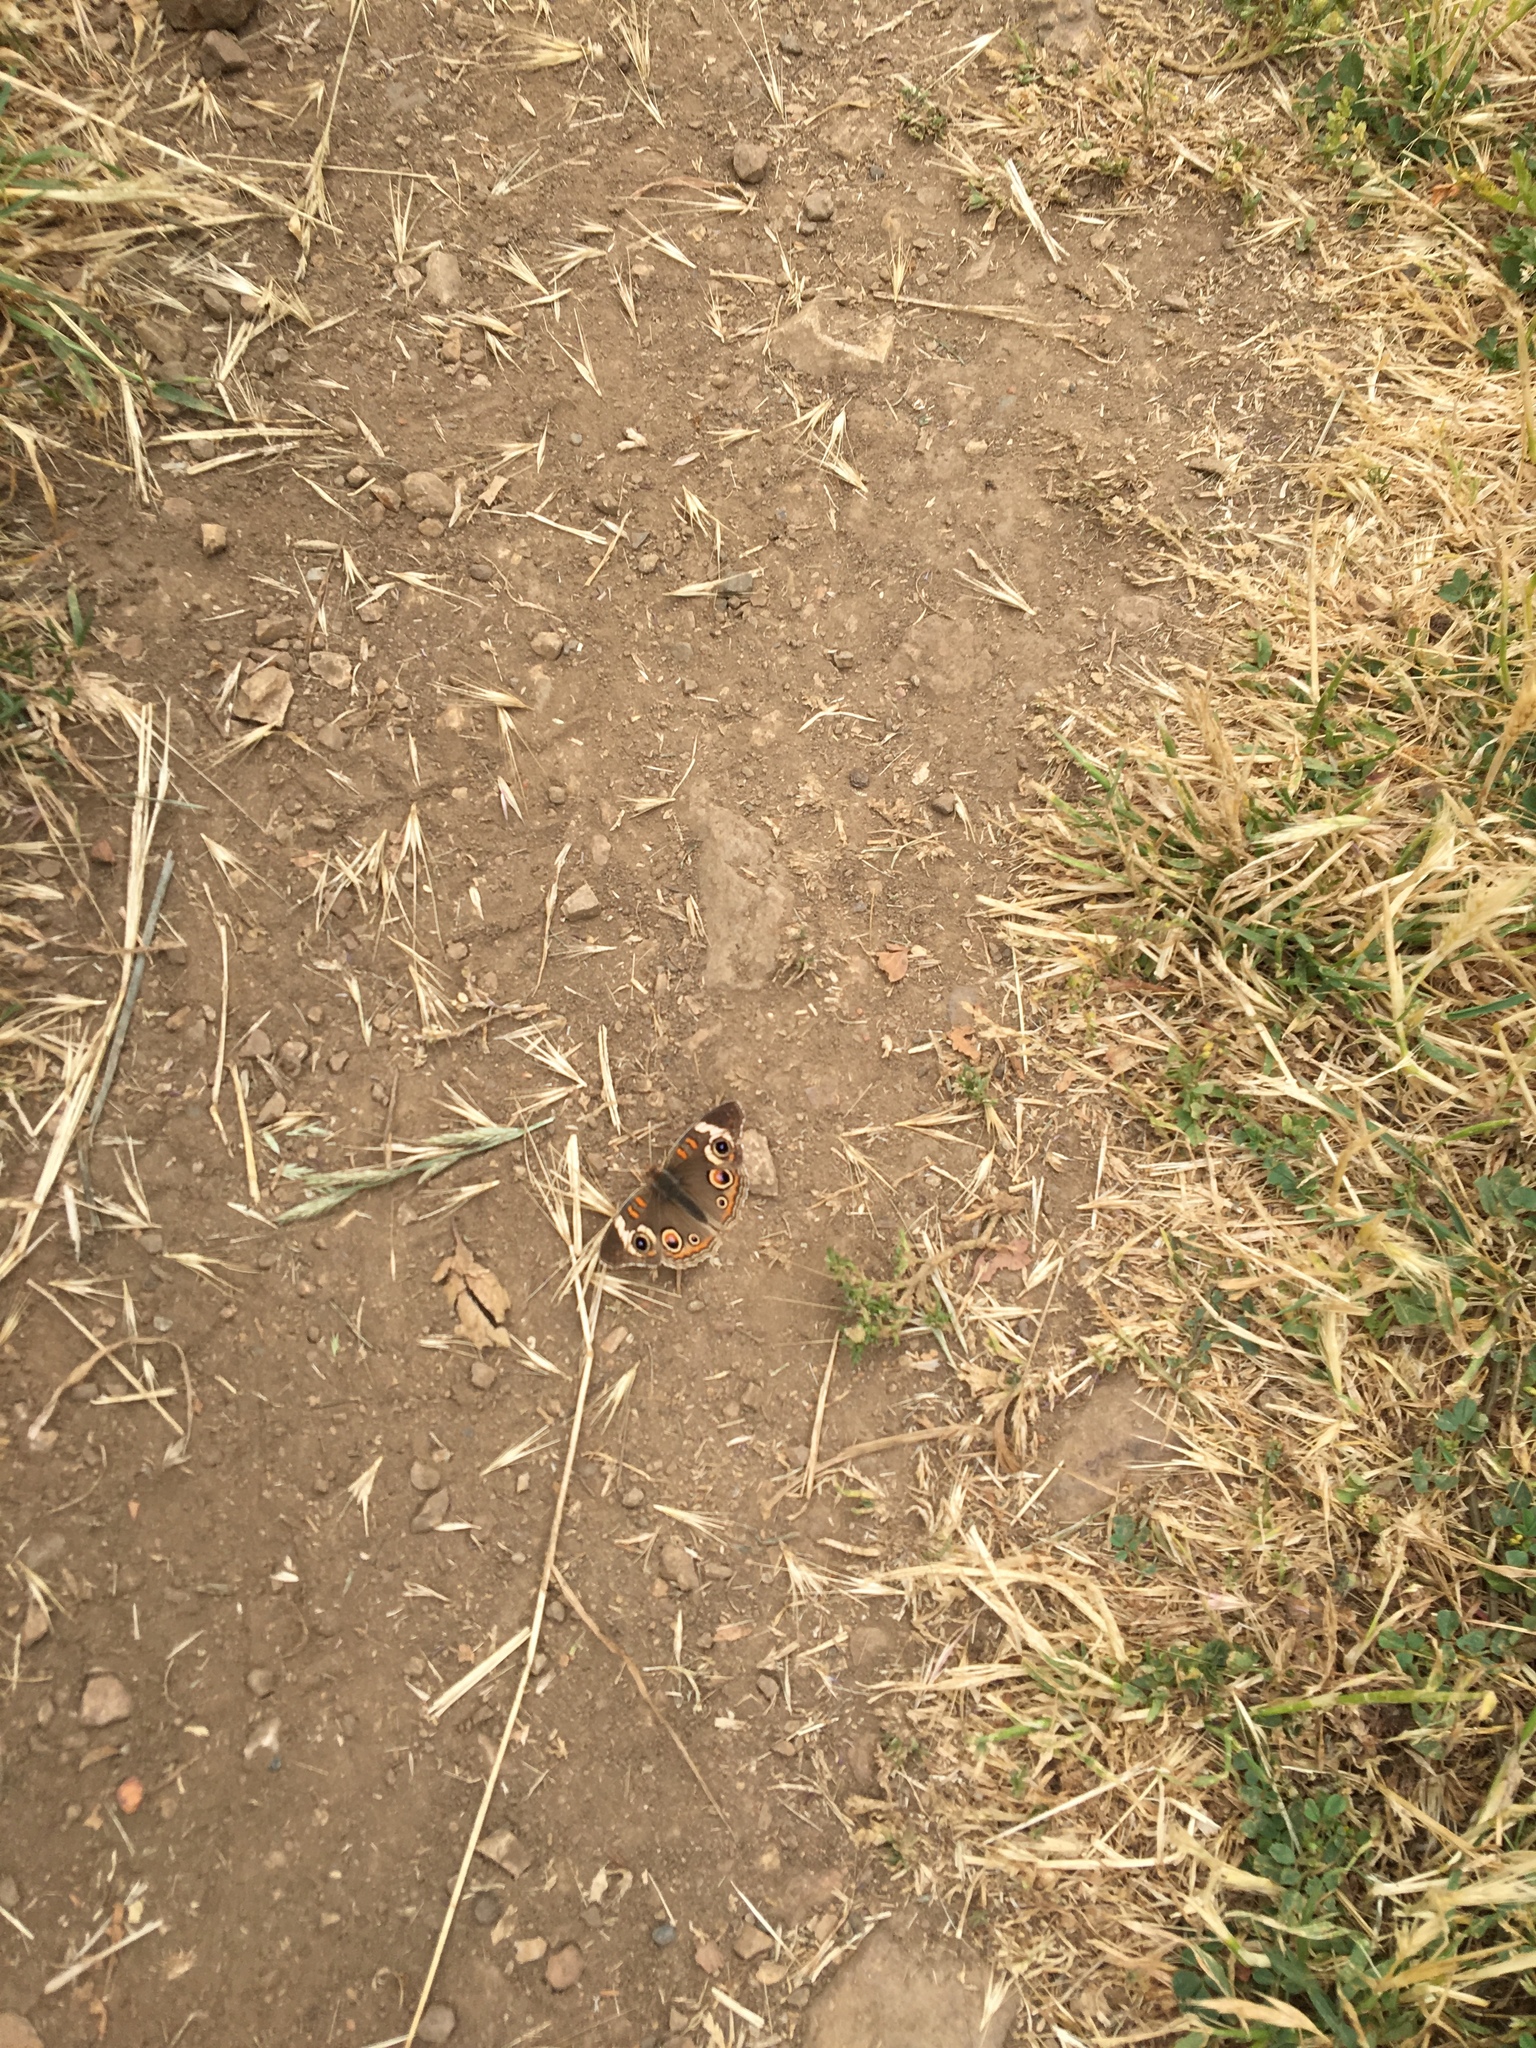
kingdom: Animalia
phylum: Arthropoda
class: Insecta
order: Lepidoptera
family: Nymphalidae
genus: Junonia
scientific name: Junonia grisea
